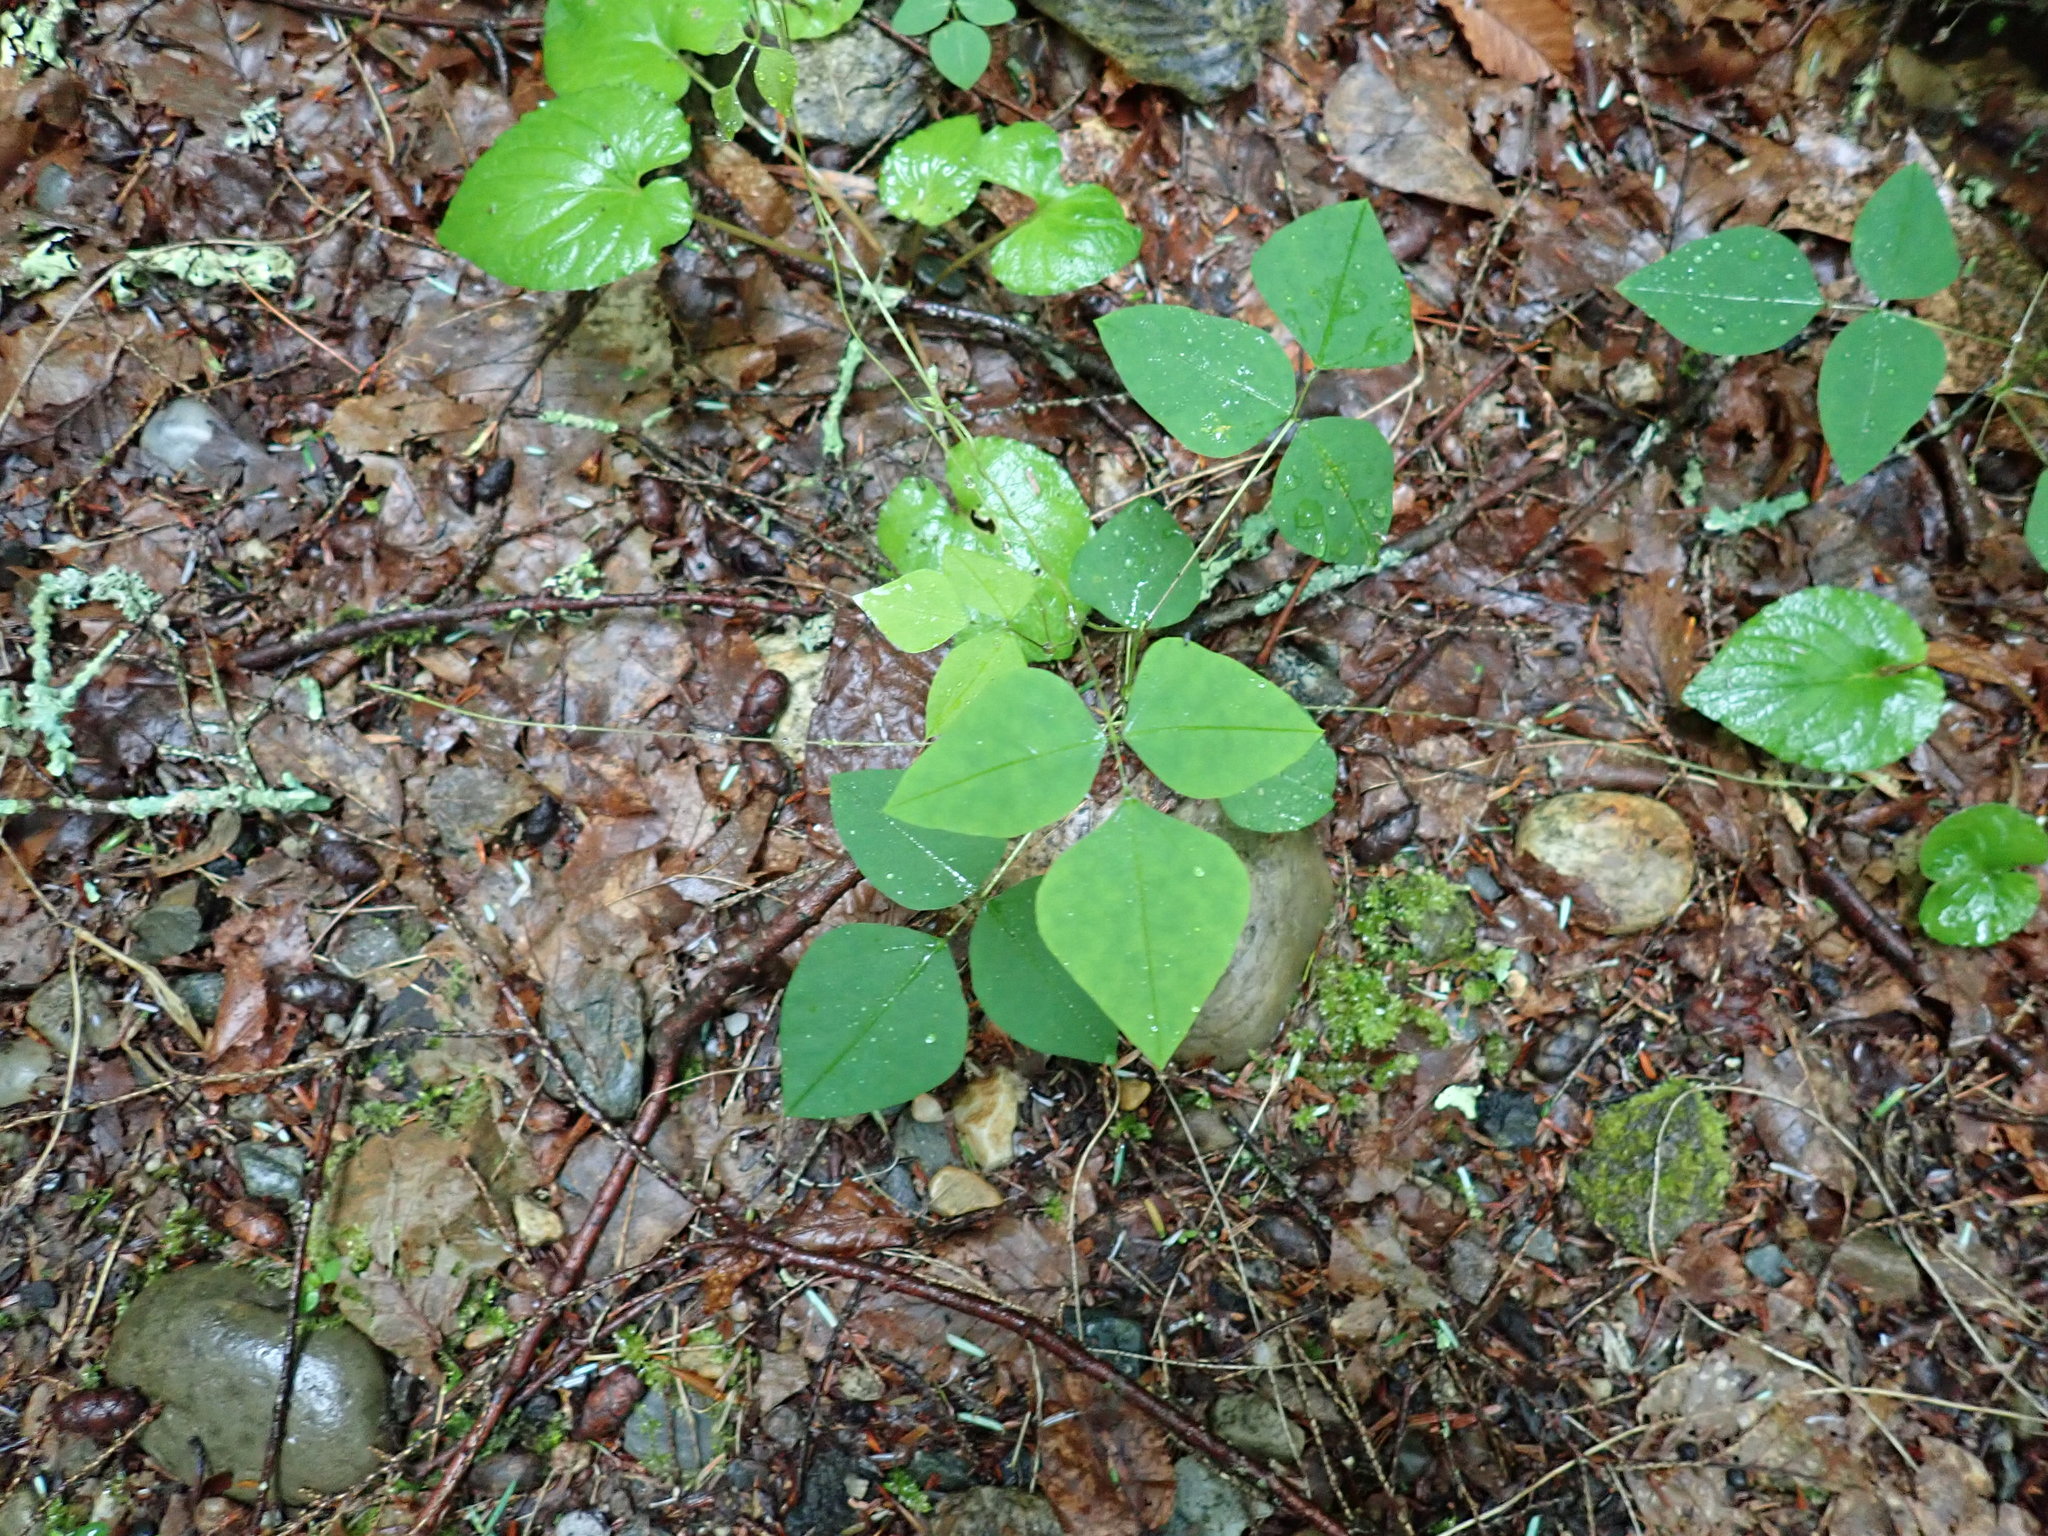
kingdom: Plantae
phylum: Tracheophyta
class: Magnoliopsida
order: Fabales
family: Fabaceae
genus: Amphicarpaea
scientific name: Amphicarpaea bracteata
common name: American hog peanut
